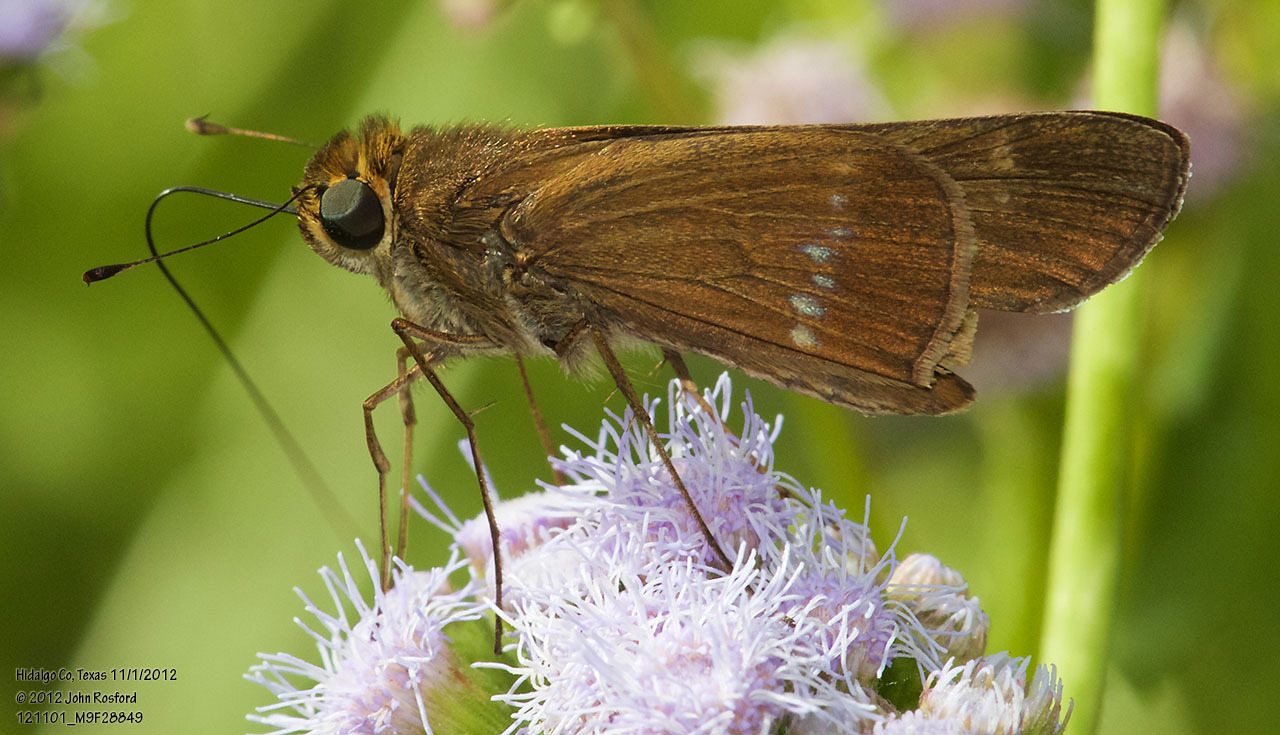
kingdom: Animalia
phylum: Arthropoda
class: Insecta
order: Lepidoptera
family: Hesperiidae
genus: Turesis
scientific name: Turesis lucas
